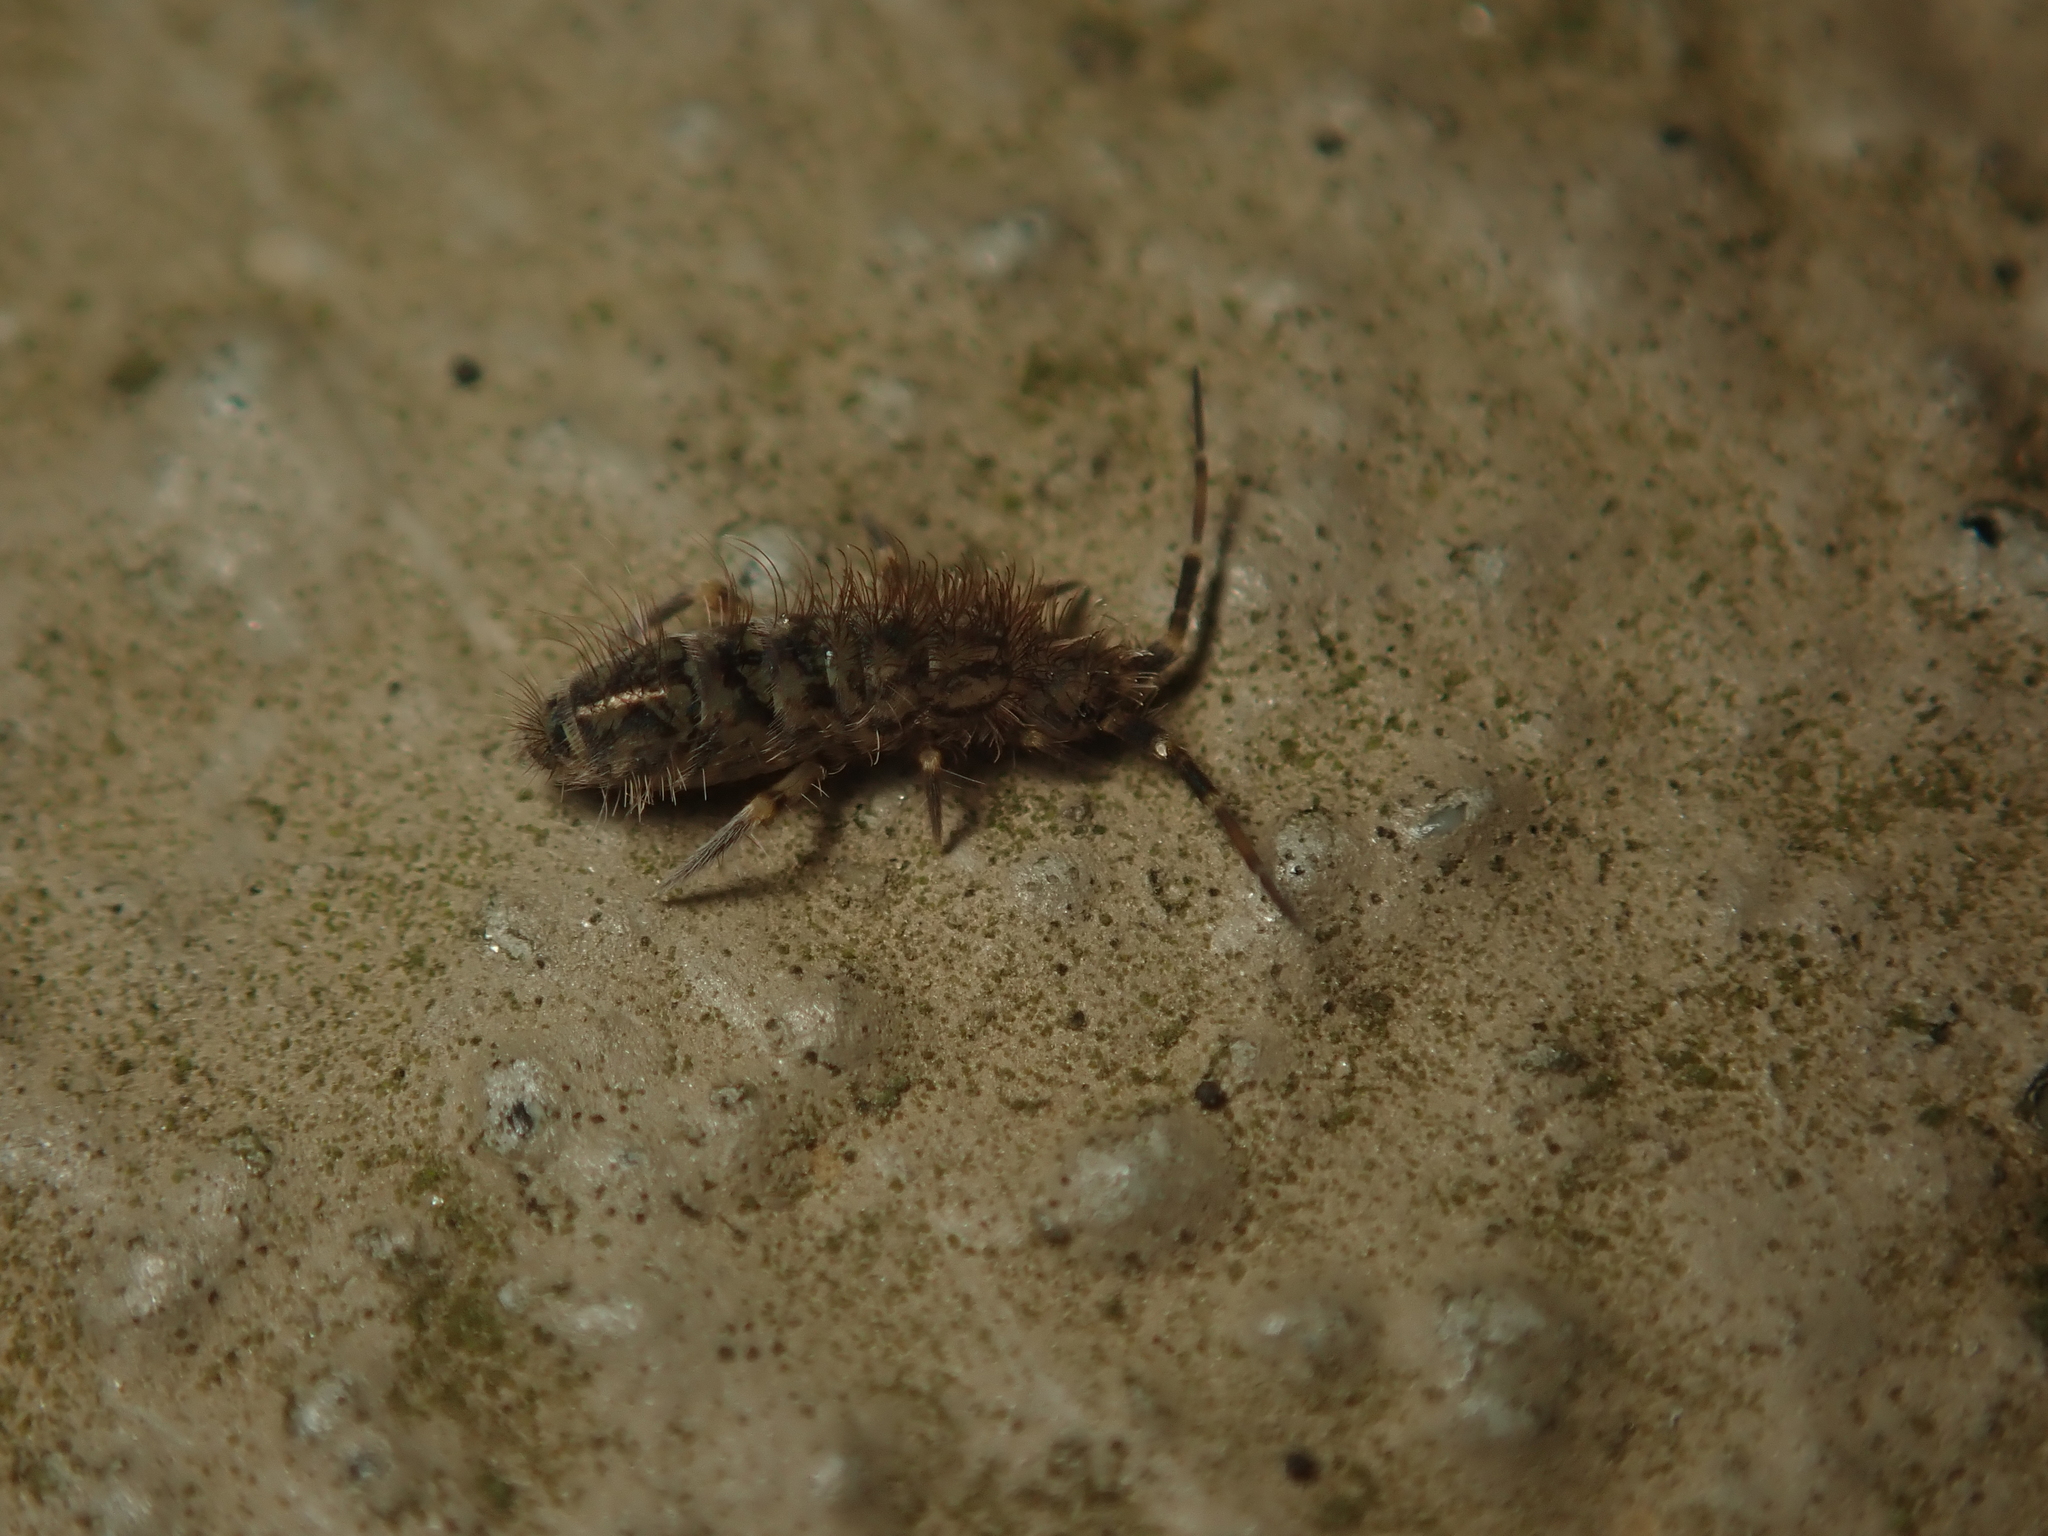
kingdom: Animalia
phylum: Arthropoda
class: Collembola
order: Entomobryomorpha
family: Orchesellidae
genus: Orchesella
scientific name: Orchesella villosa
